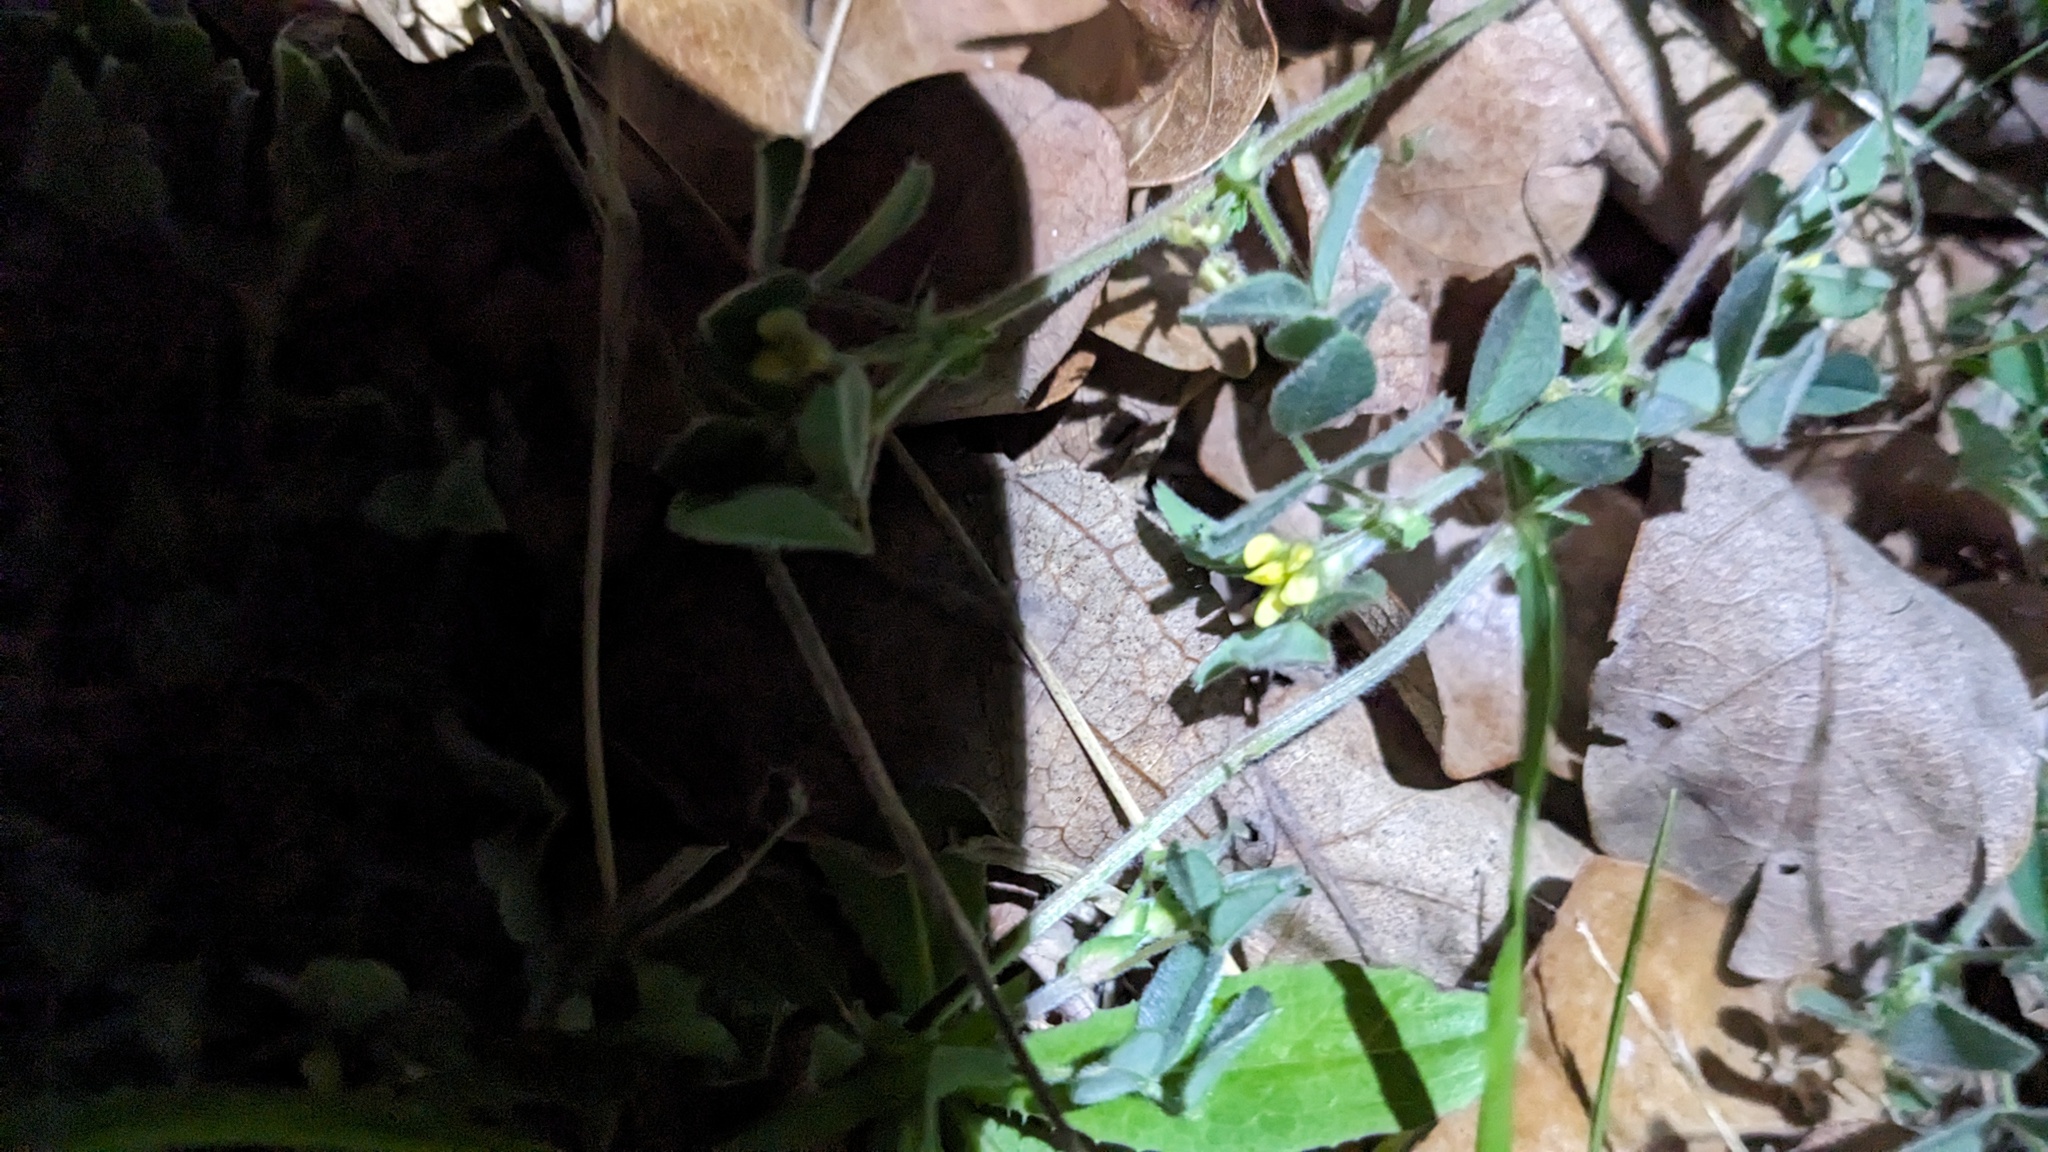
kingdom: Plantae
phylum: Tracheophyta
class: Magnoliopsida
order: Fabales
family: Fabaceae
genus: Medicago
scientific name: Medicago minima
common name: Little bur-clover
